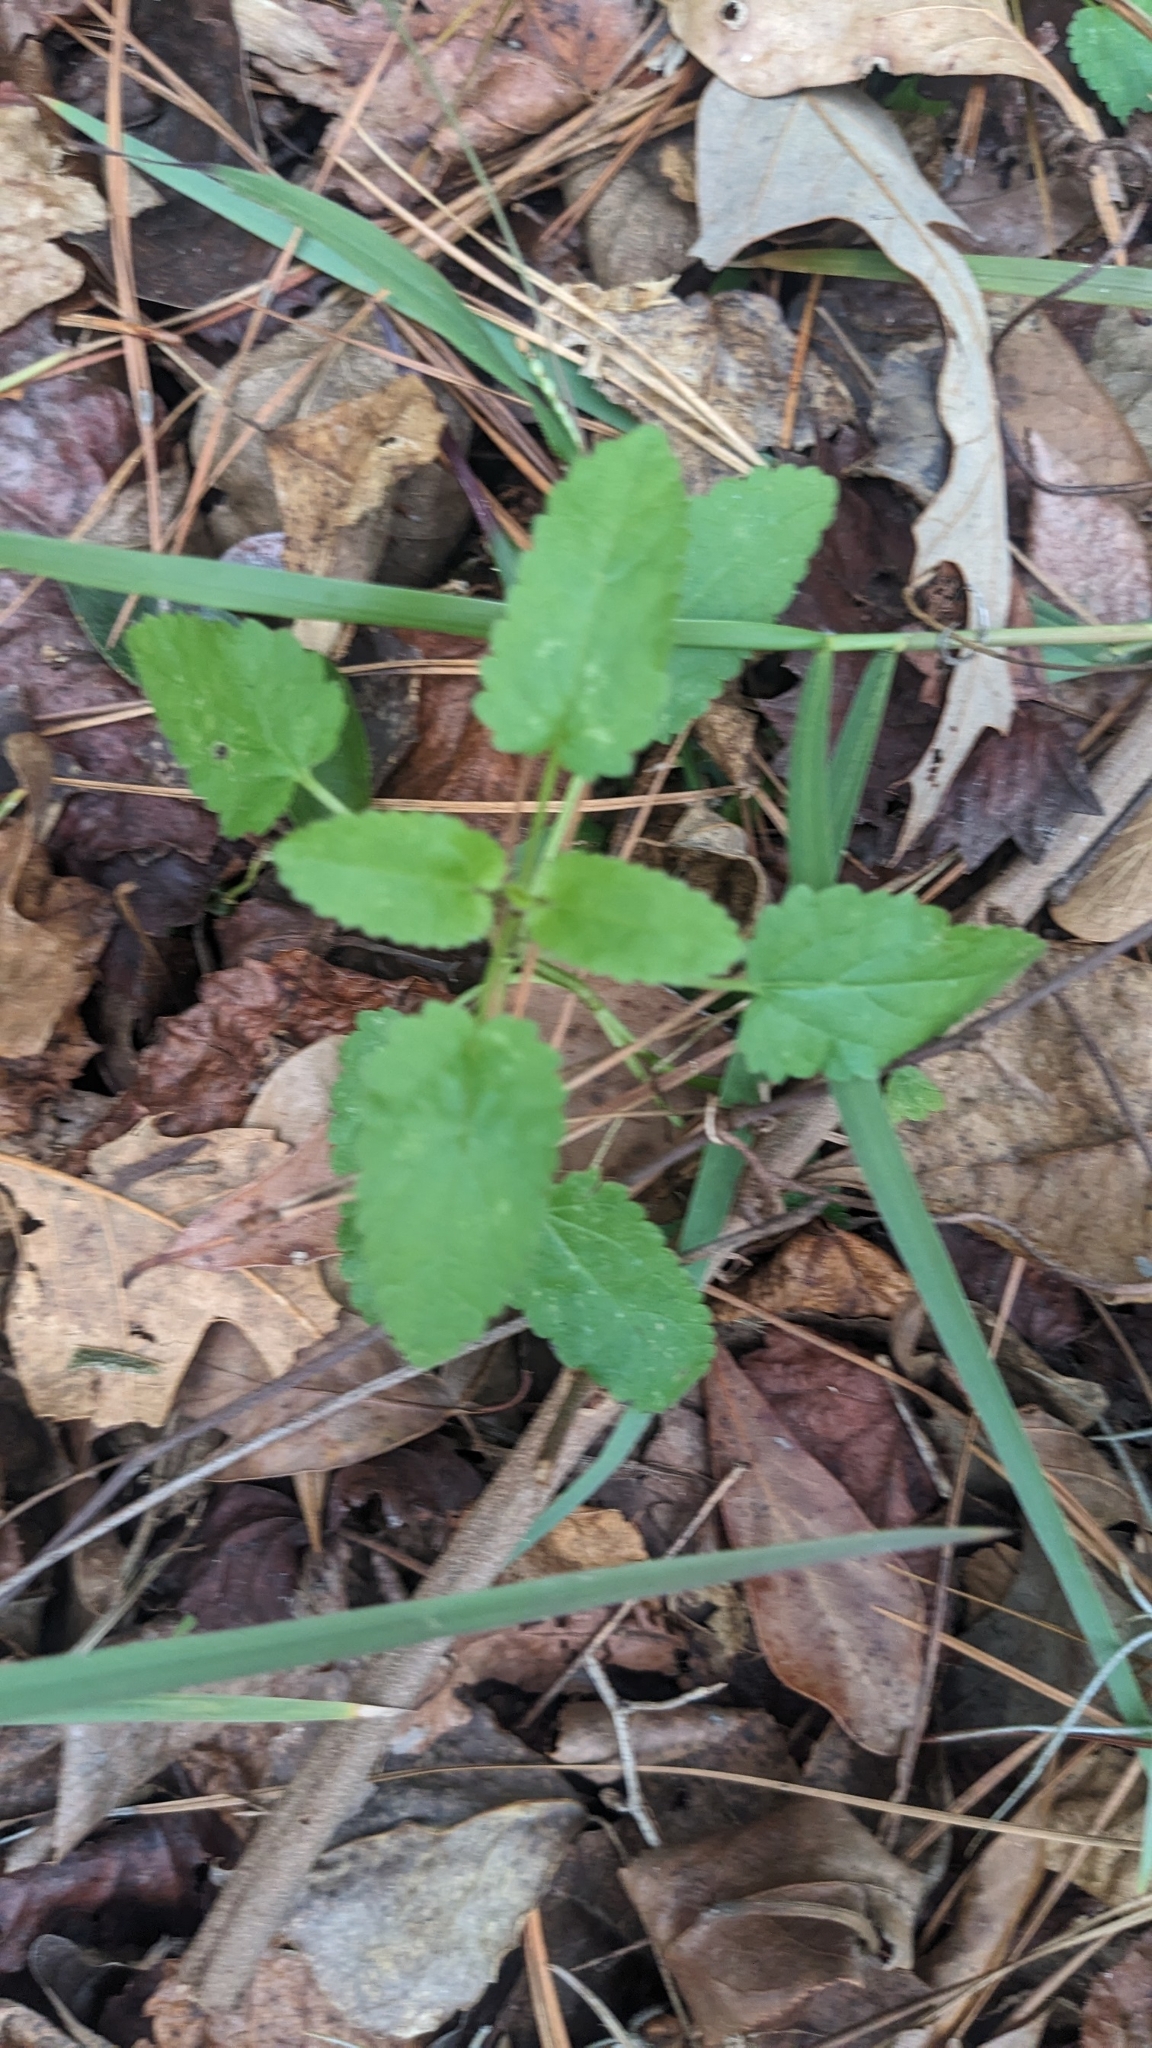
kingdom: Plantae
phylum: Tracheophyta
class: Magnoliopsida
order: Lamiales
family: Lamiaceae
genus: Stachys
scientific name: Stachys floridana
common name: Florida betony
